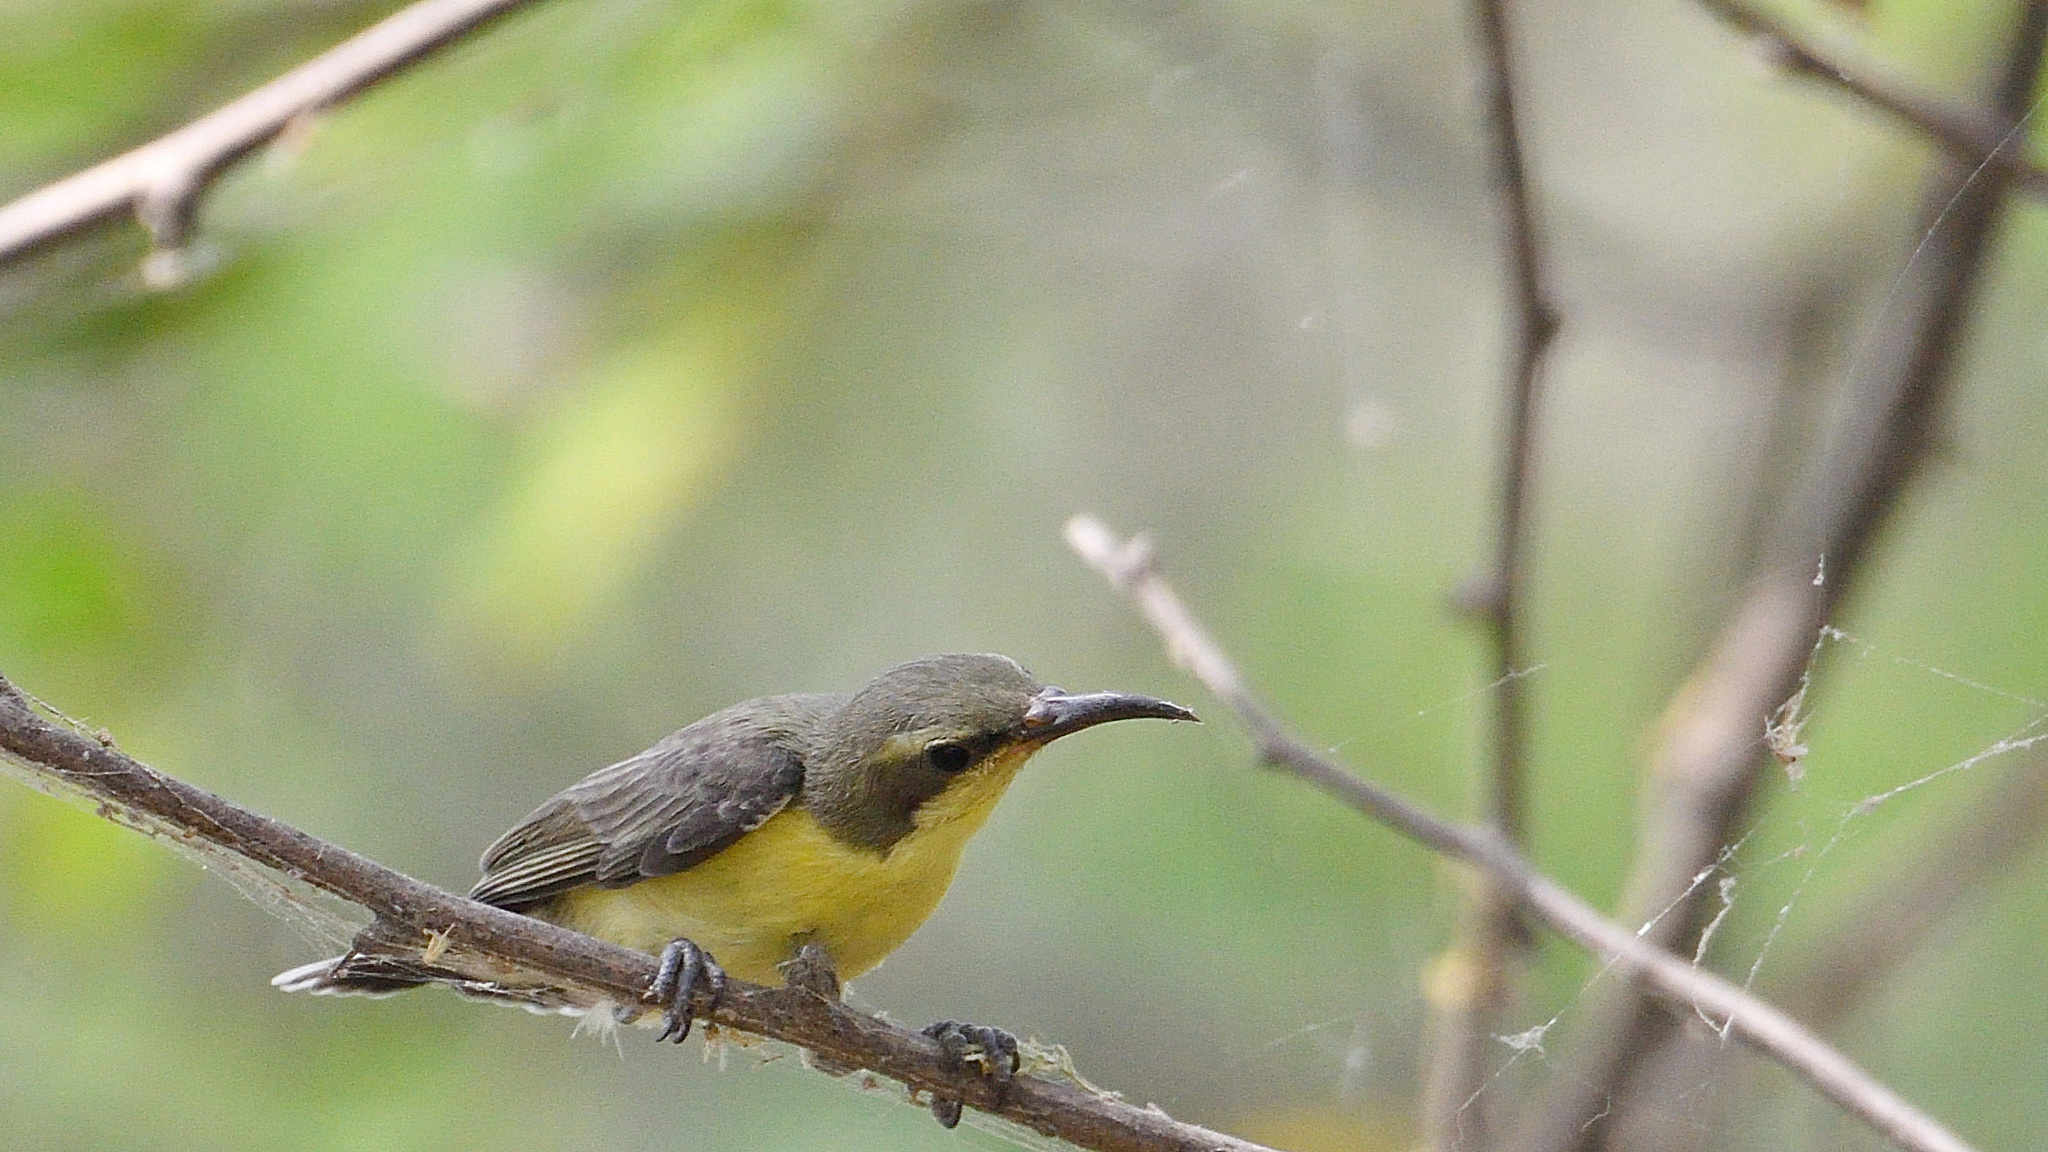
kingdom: Animalia
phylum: Chordata
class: Aves
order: Passeriformes
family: Nectariniidae
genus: Cinnyris
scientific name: Cinnyris asiaticus
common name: Purple sunbird
